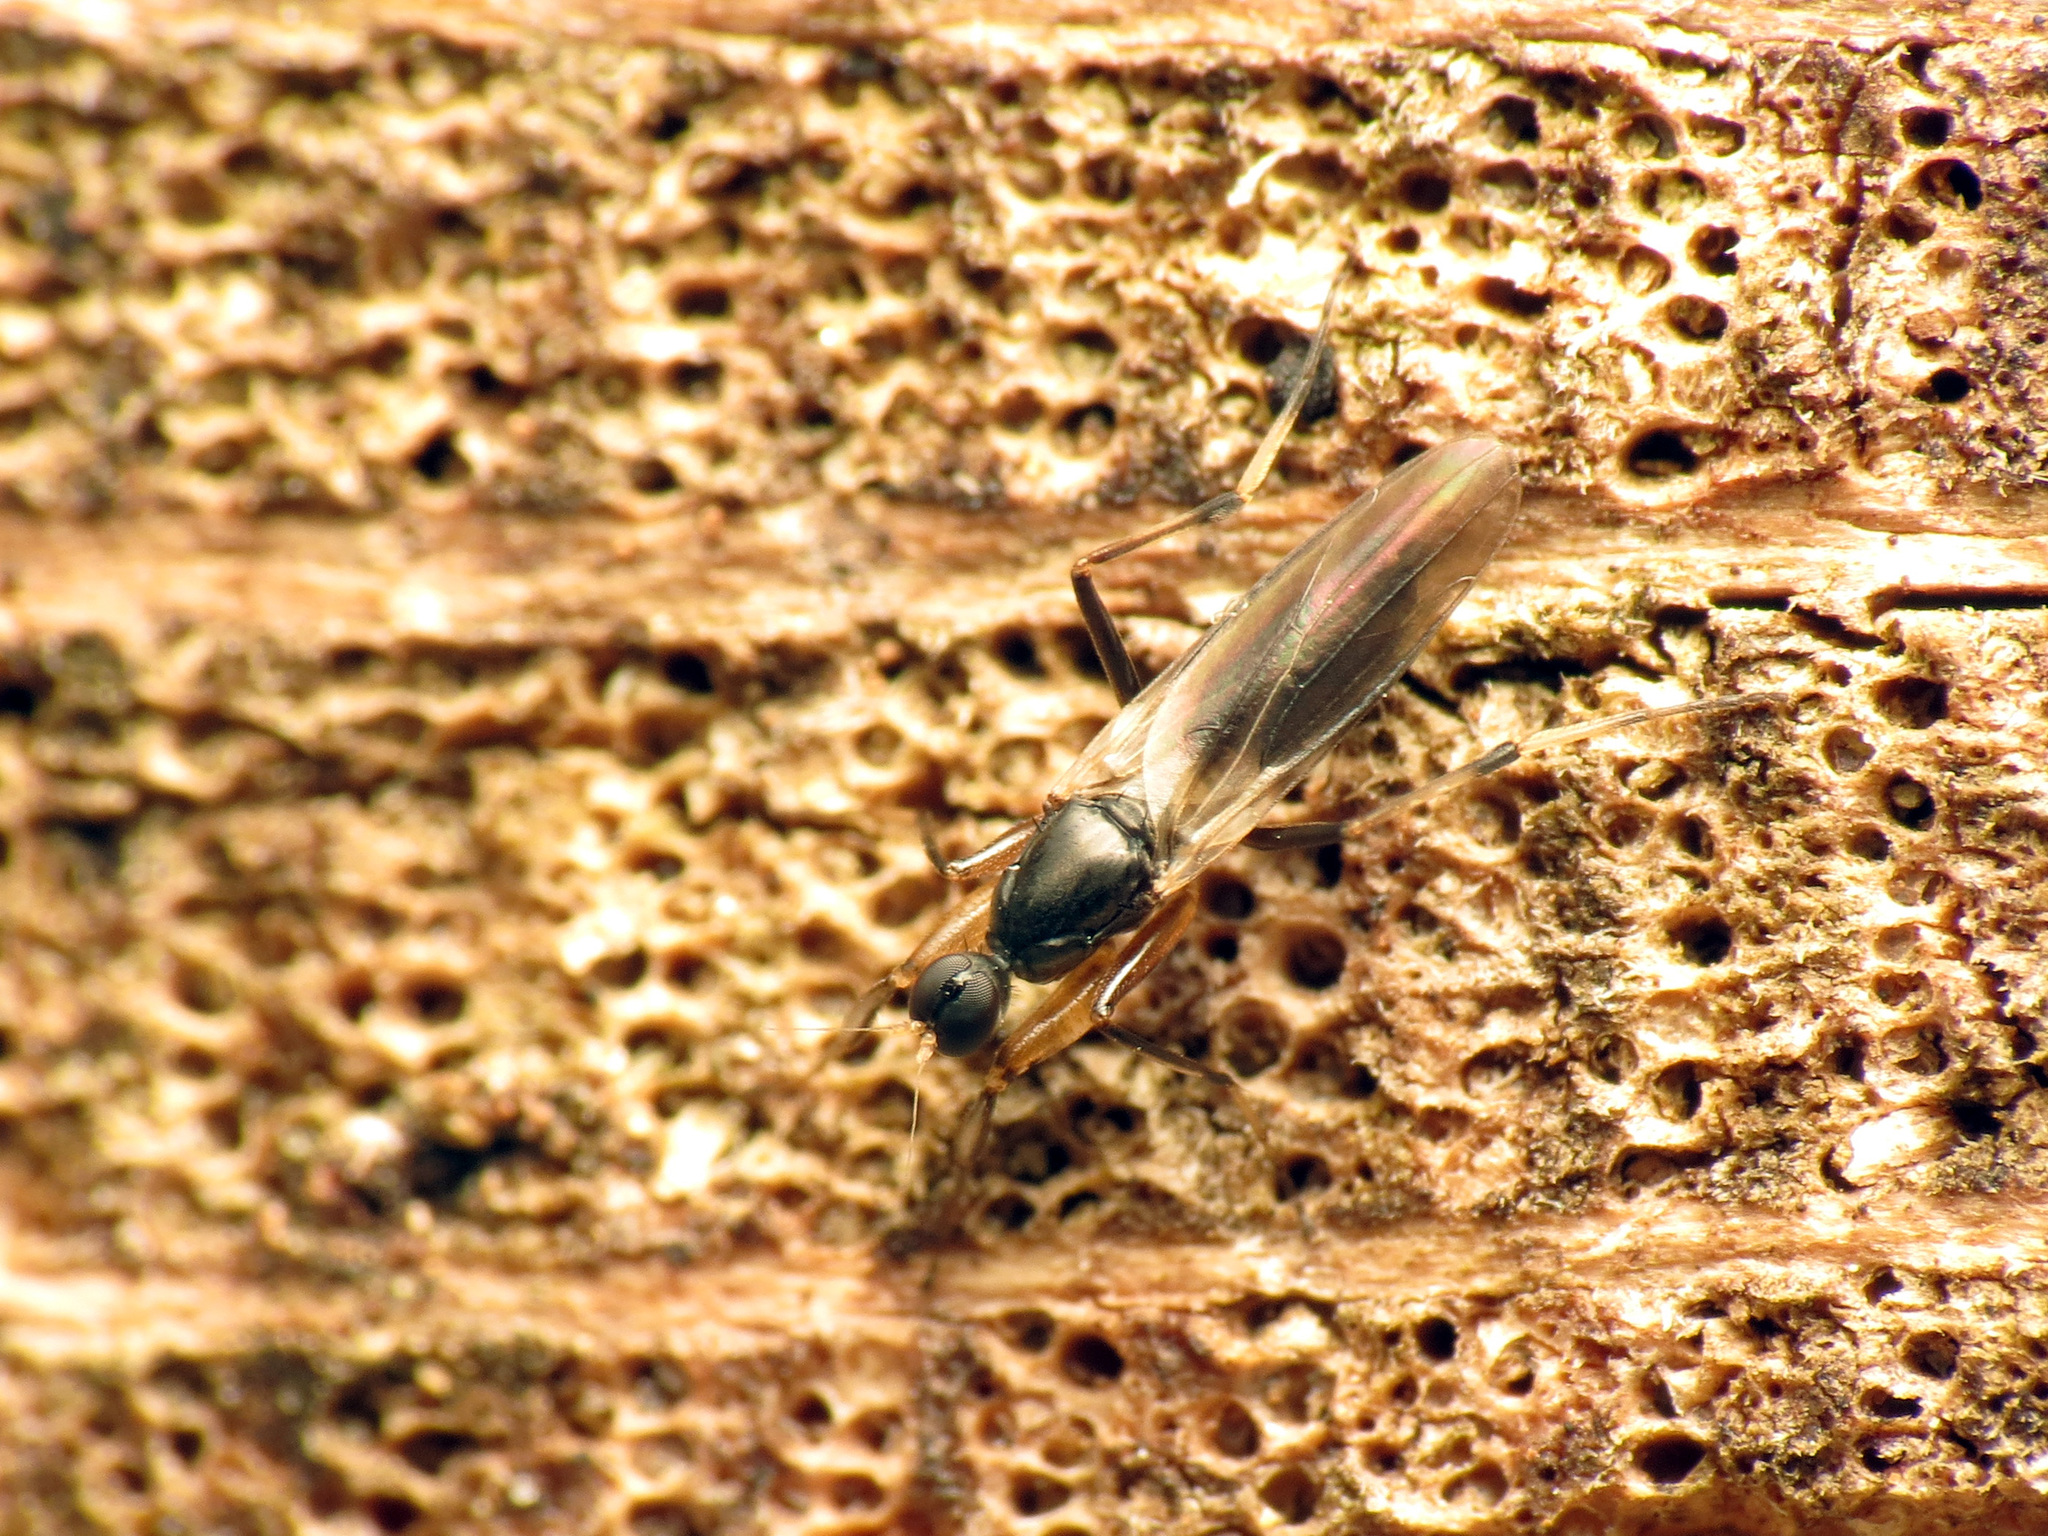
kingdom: Animalia
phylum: Arthropoda
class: Insecta
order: Diptera
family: Hybotidae
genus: Tachypeza
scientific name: Tachypeza fenestrata
